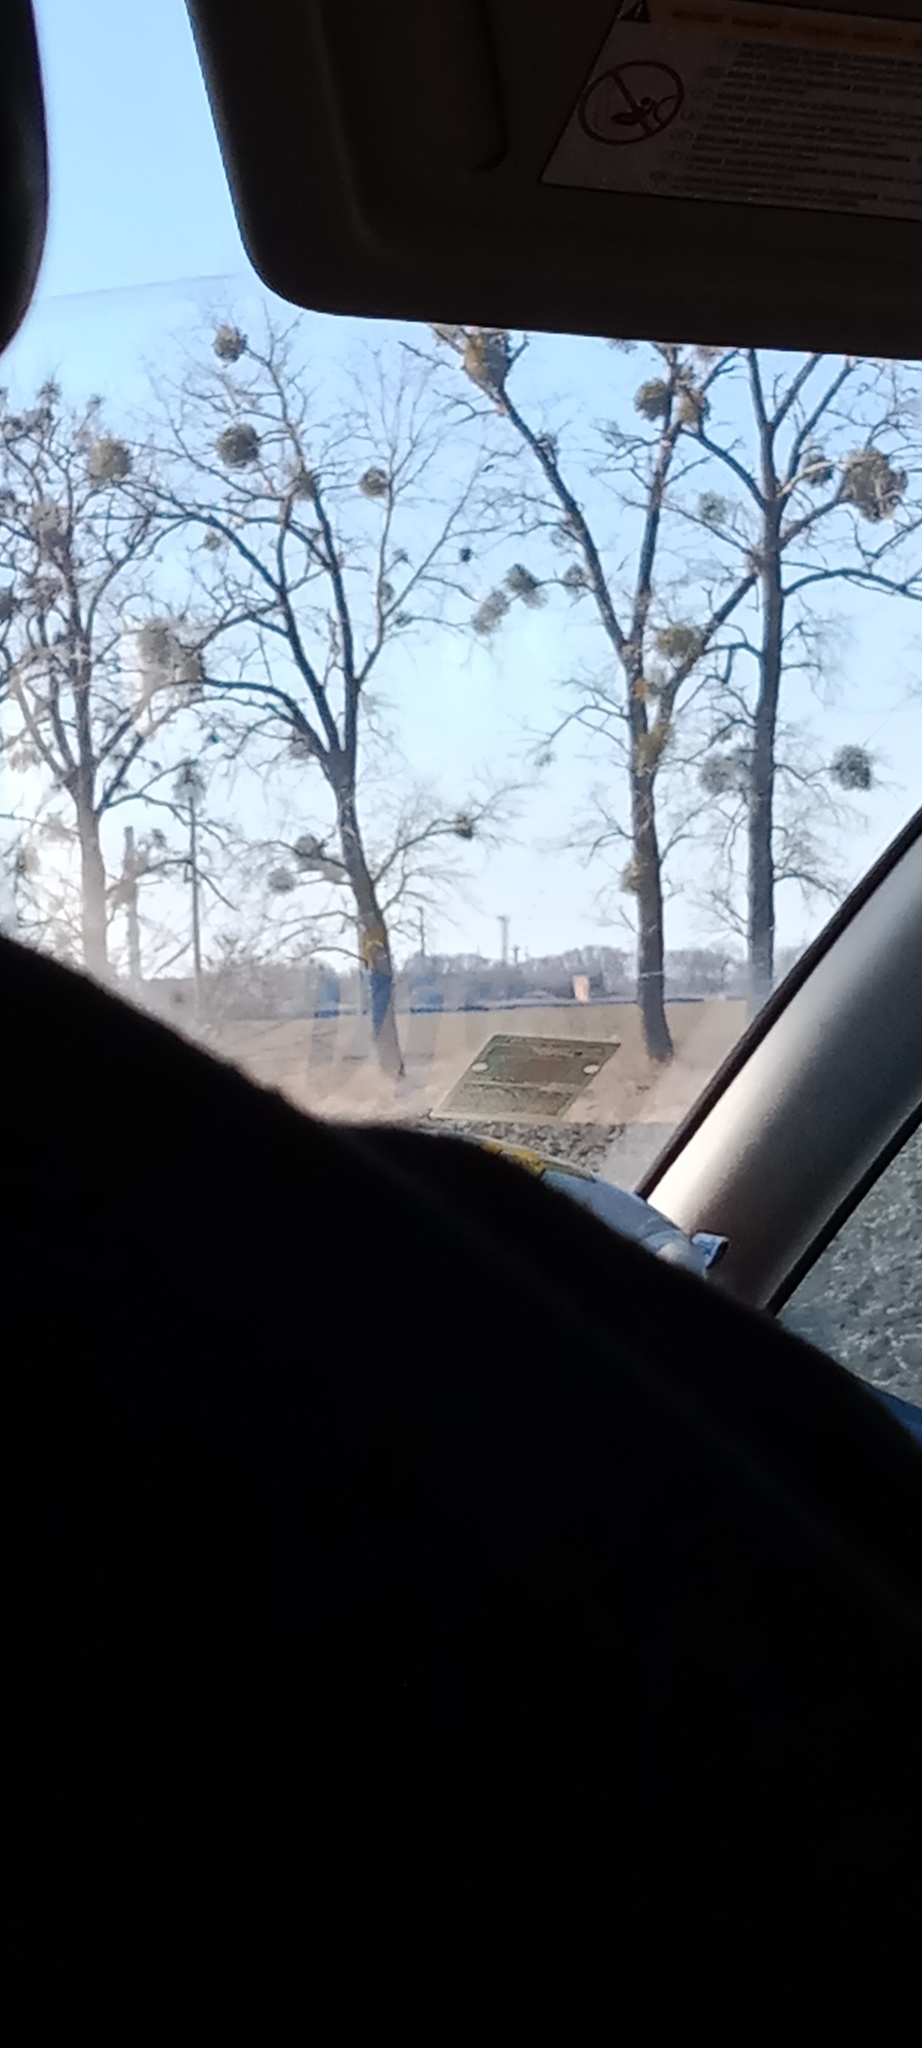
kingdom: Plantae
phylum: Tracheophyta
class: Magnoliopsida
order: Santalales
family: Viscaceae
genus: Viscum
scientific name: Viscum album
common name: Mistletoe
